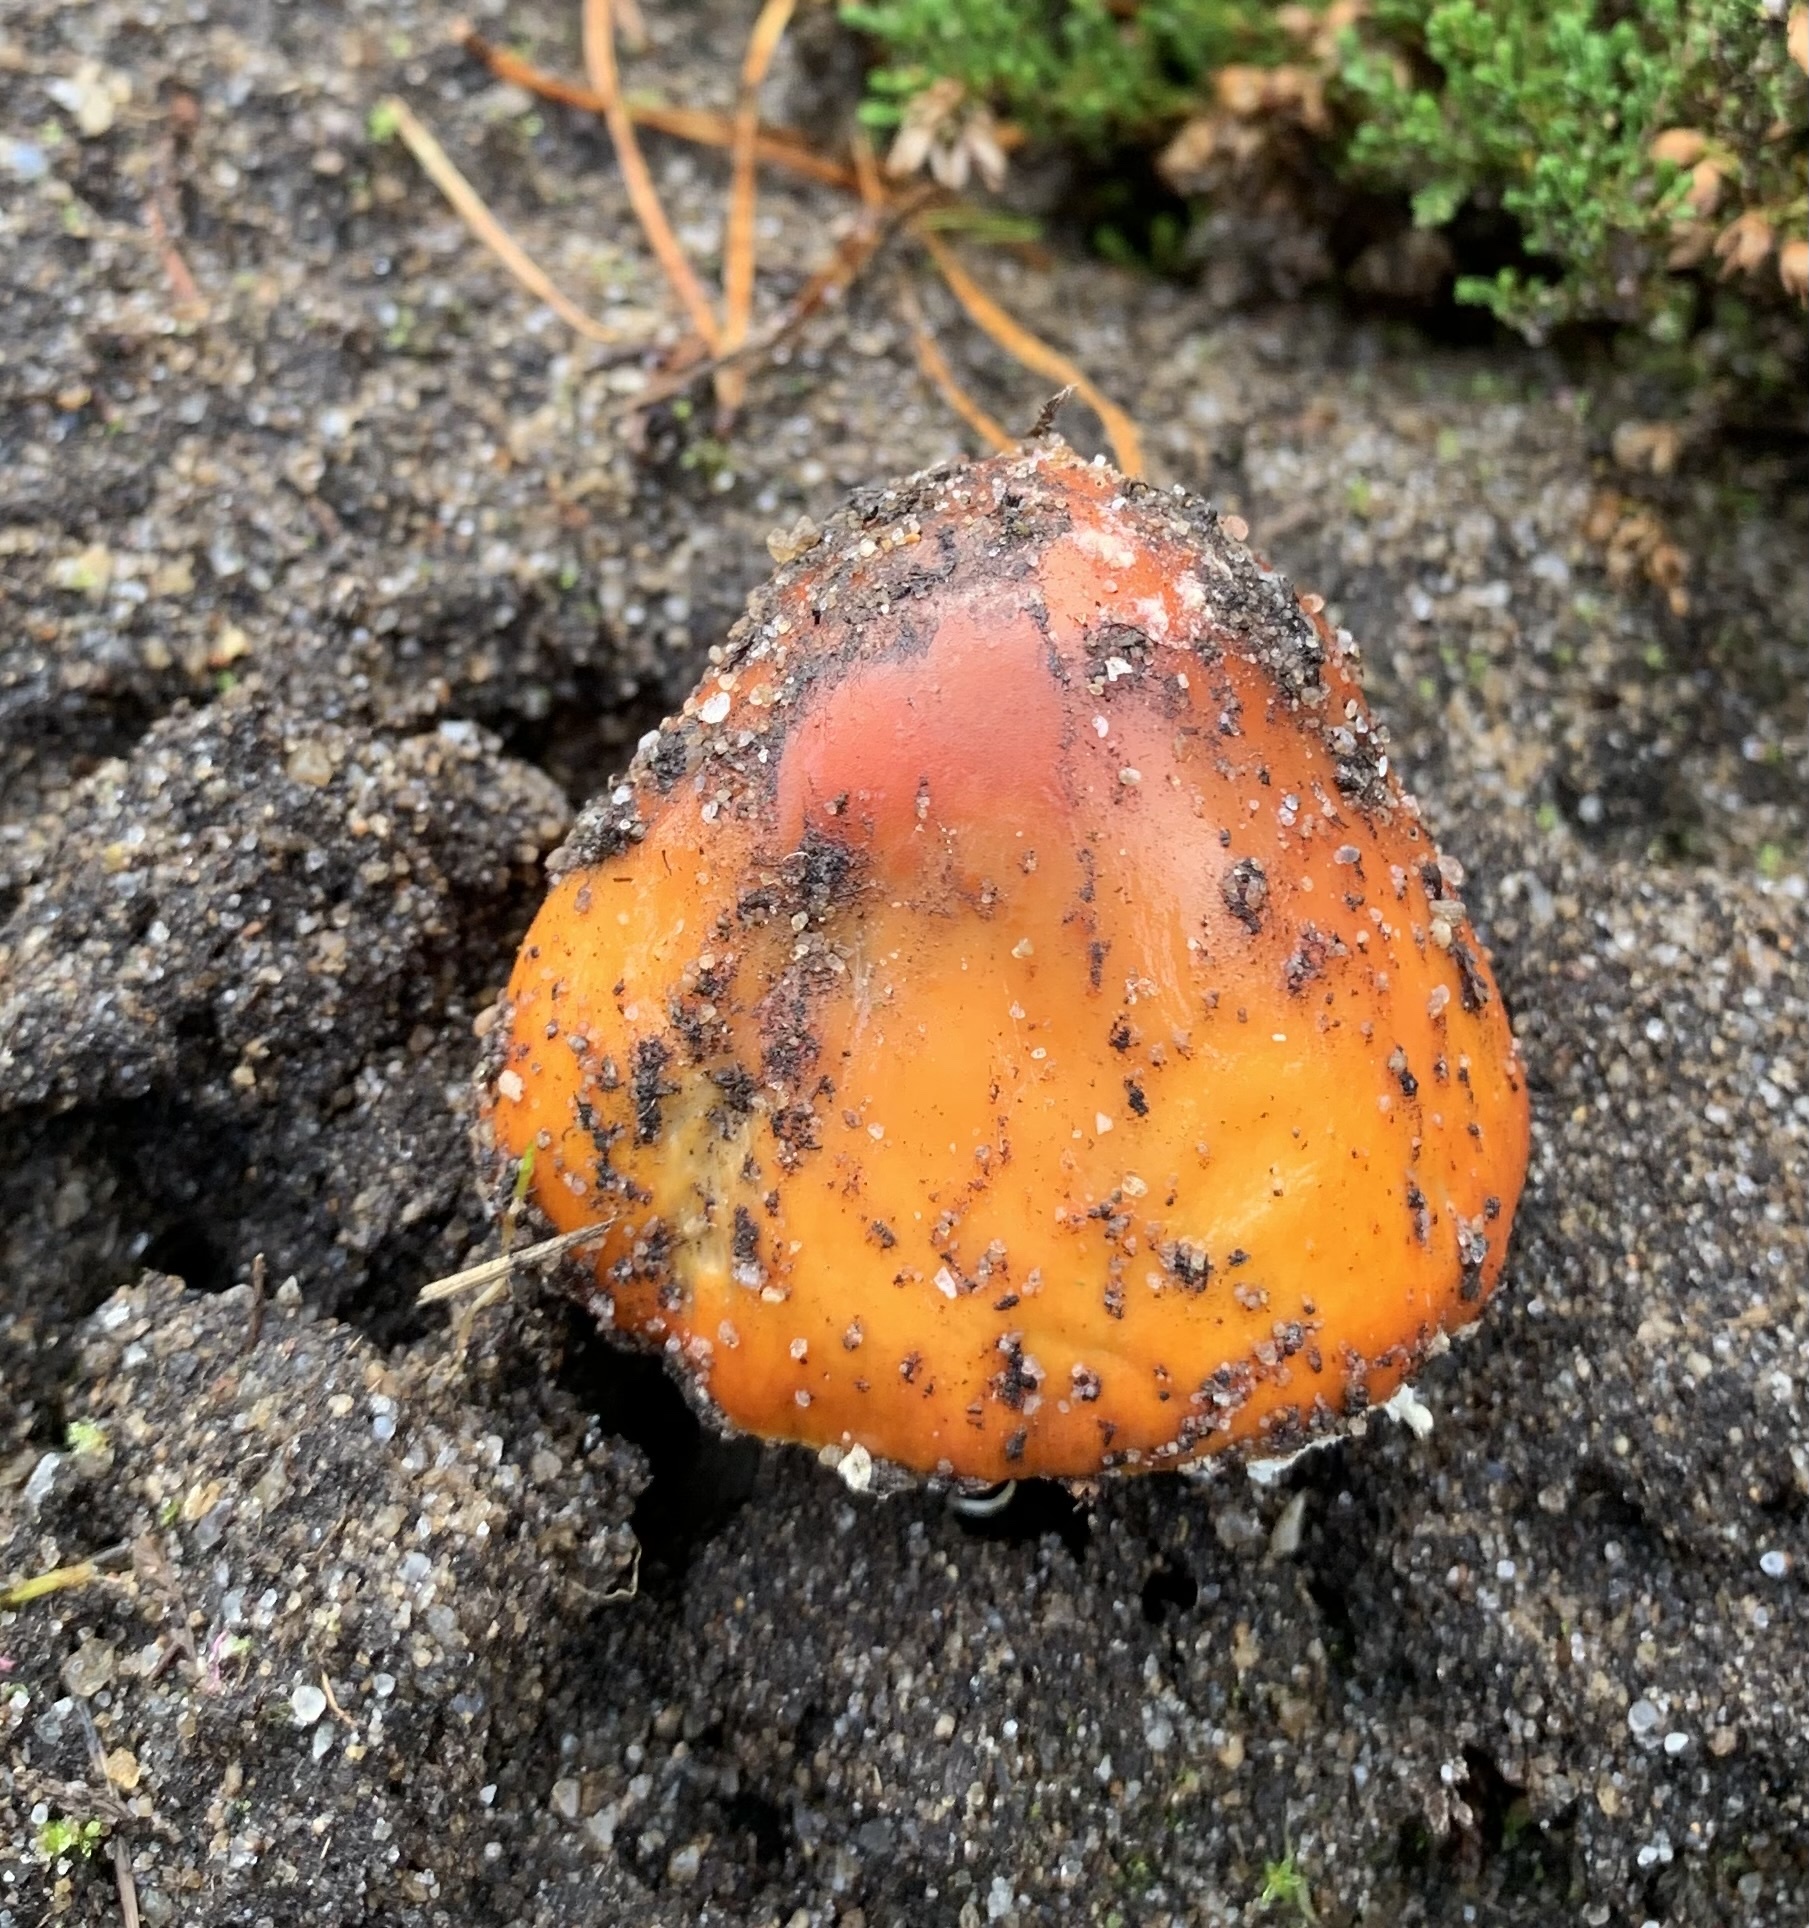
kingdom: Fungi
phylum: Basidiomycota
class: Agaricomycetes
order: Agaricales
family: Amanitaceae
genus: Amanita
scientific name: Amanita muscaria
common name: Fly agaric
